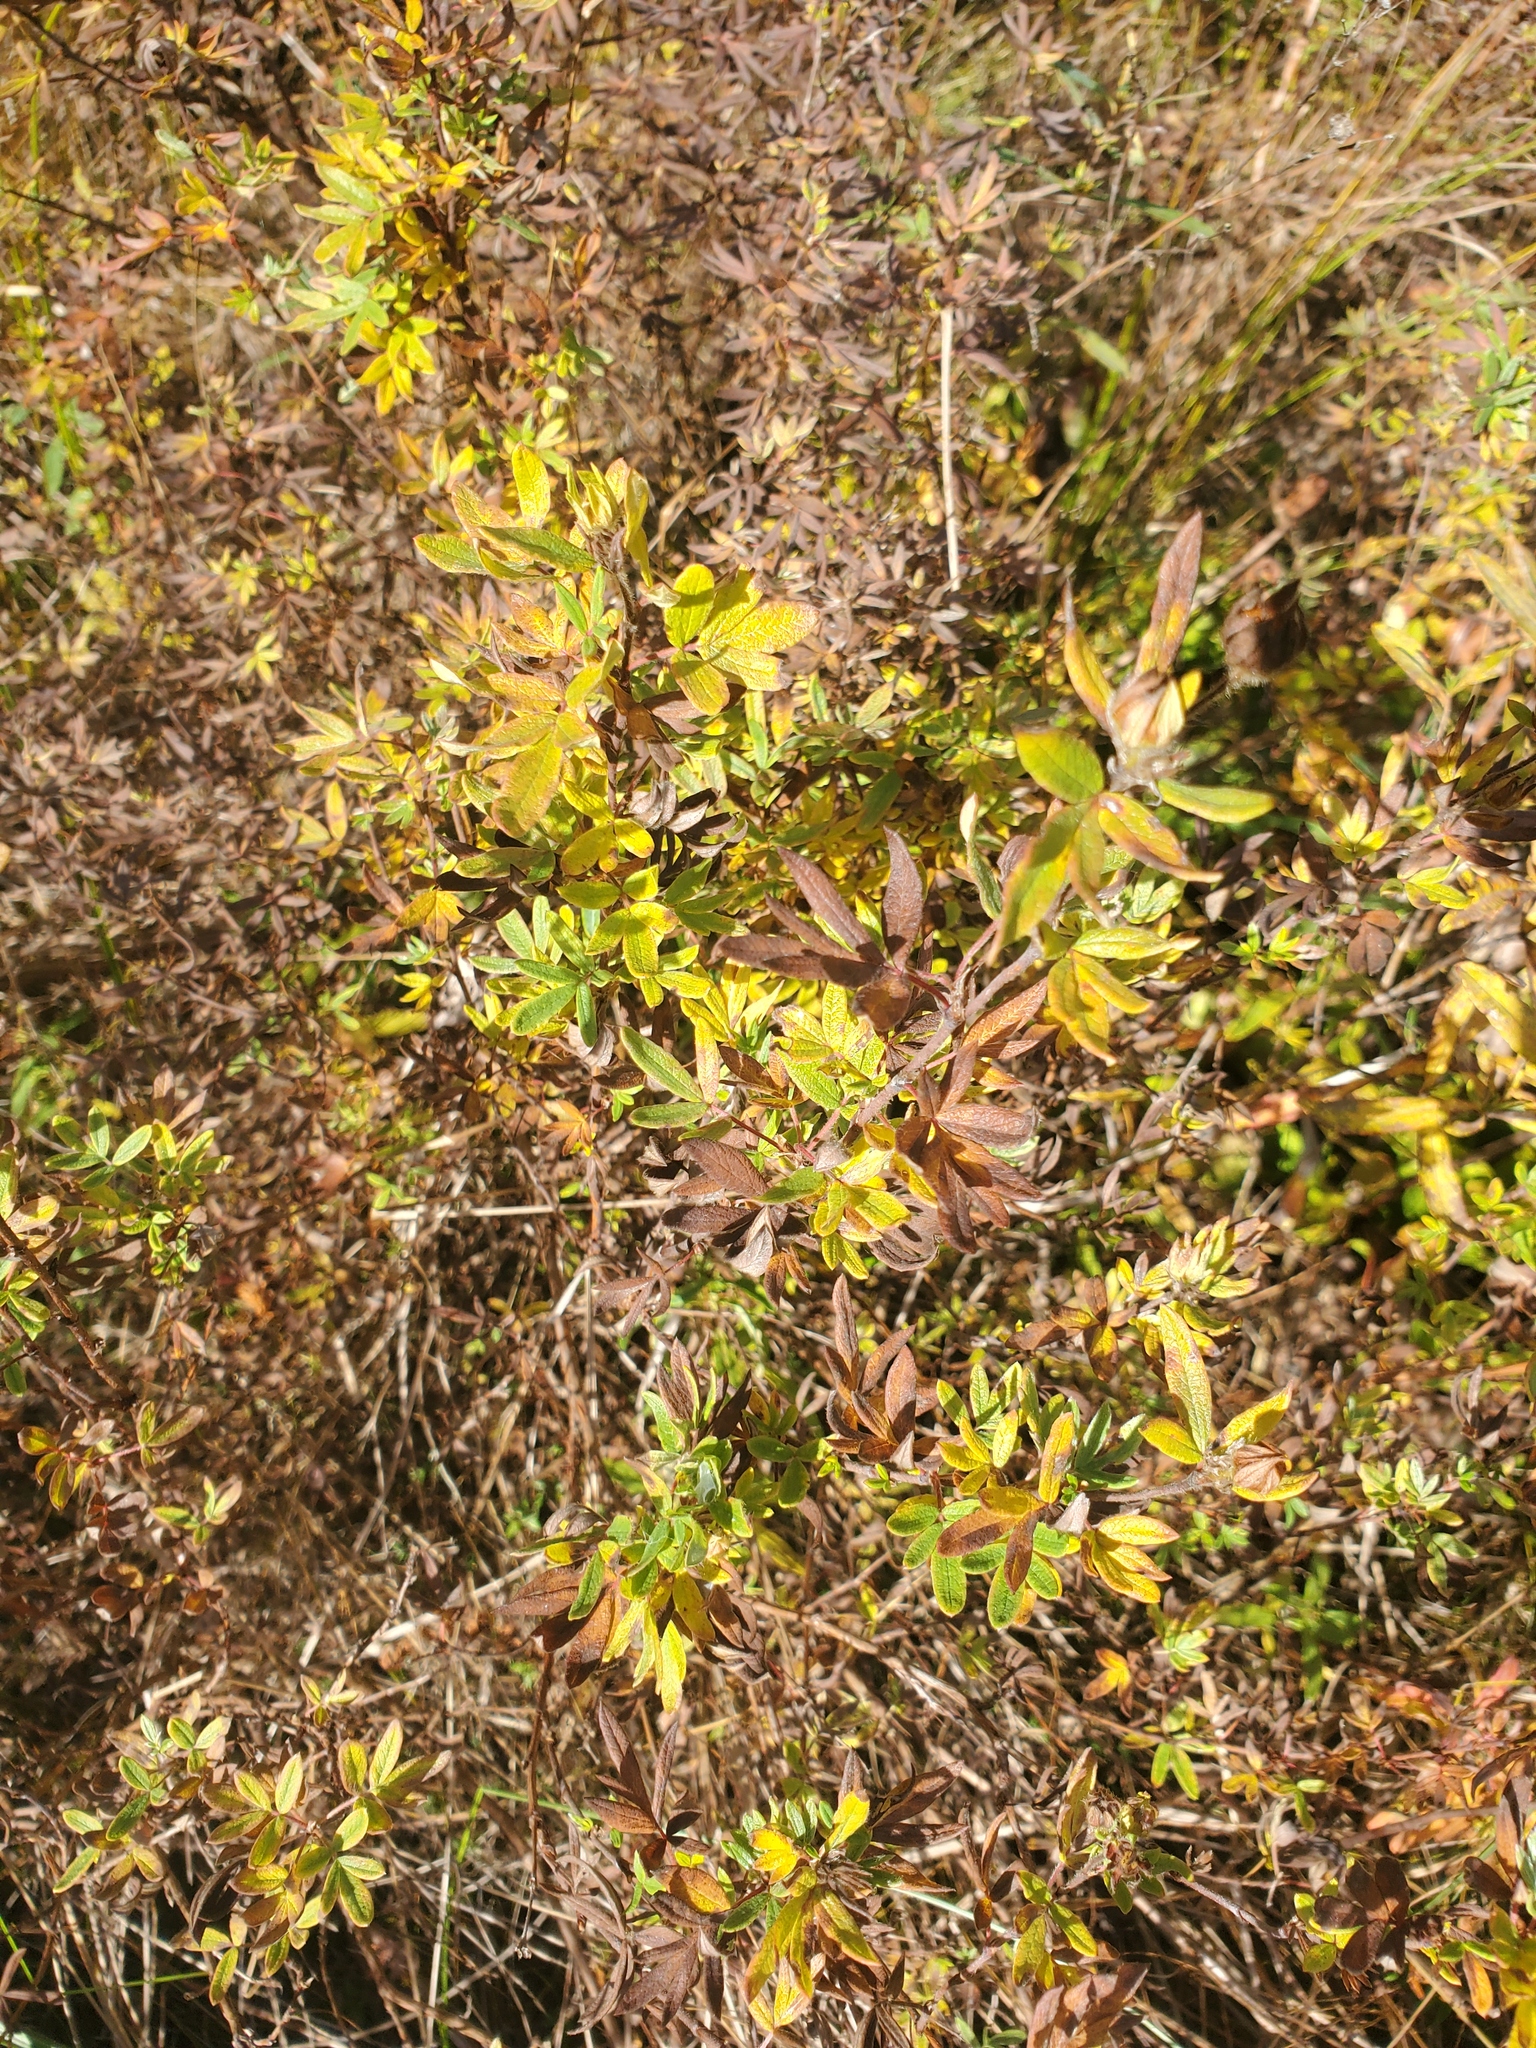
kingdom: Plantae
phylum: Tracheophyta
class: Magnoliopsida
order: Rosales
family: Rosaceae
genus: Dasiphora
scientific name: Dasiphora fruticosa
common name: Shrubby cinquefoil
